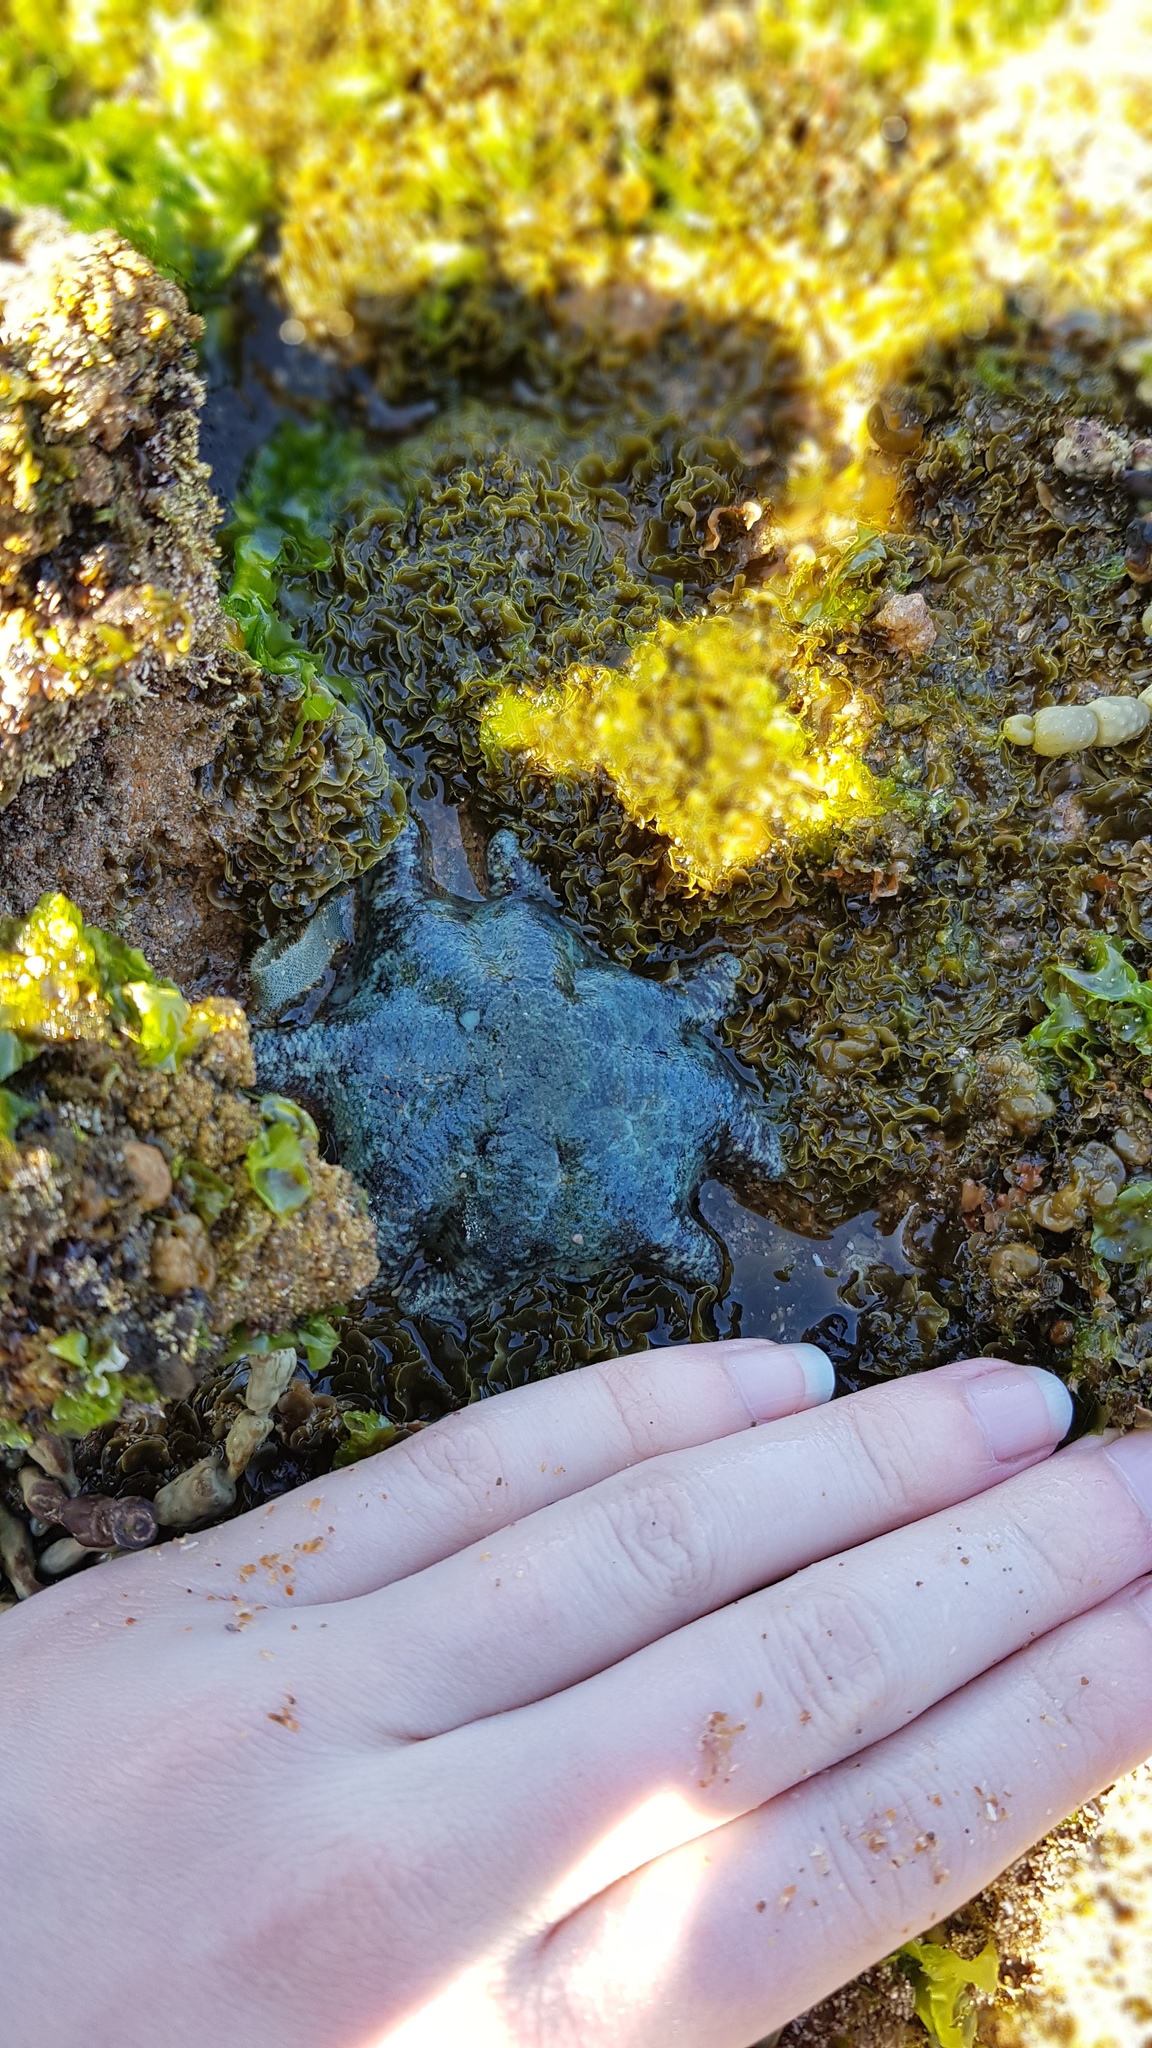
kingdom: Animalia
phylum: Echinodermata
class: Asteroidea
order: Valvatida
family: Asterinidae
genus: Meridiastra
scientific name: Meridiastra calcar
